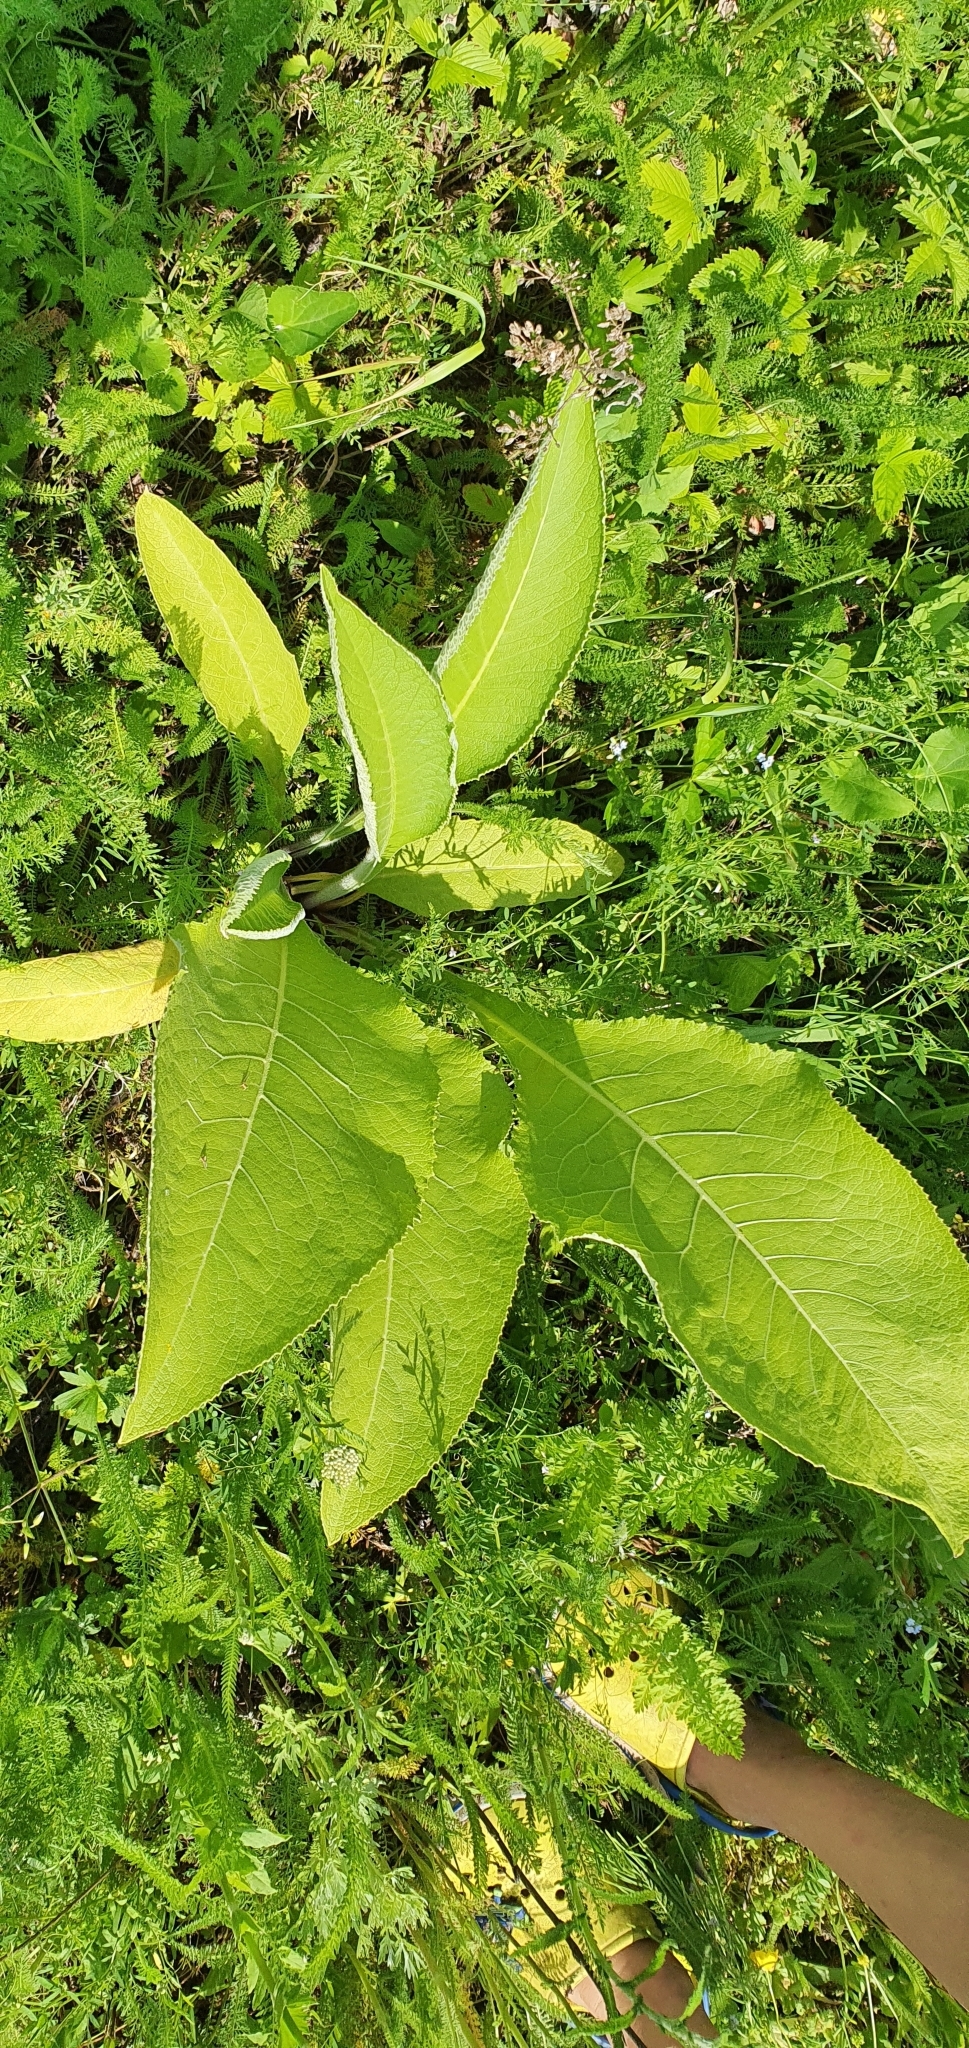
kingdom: Plantae
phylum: Tracheophyta
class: Magnoliopsida
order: Asterales
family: Asteraceae
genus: Inula
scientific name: Inula helenium
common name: Elecampane
